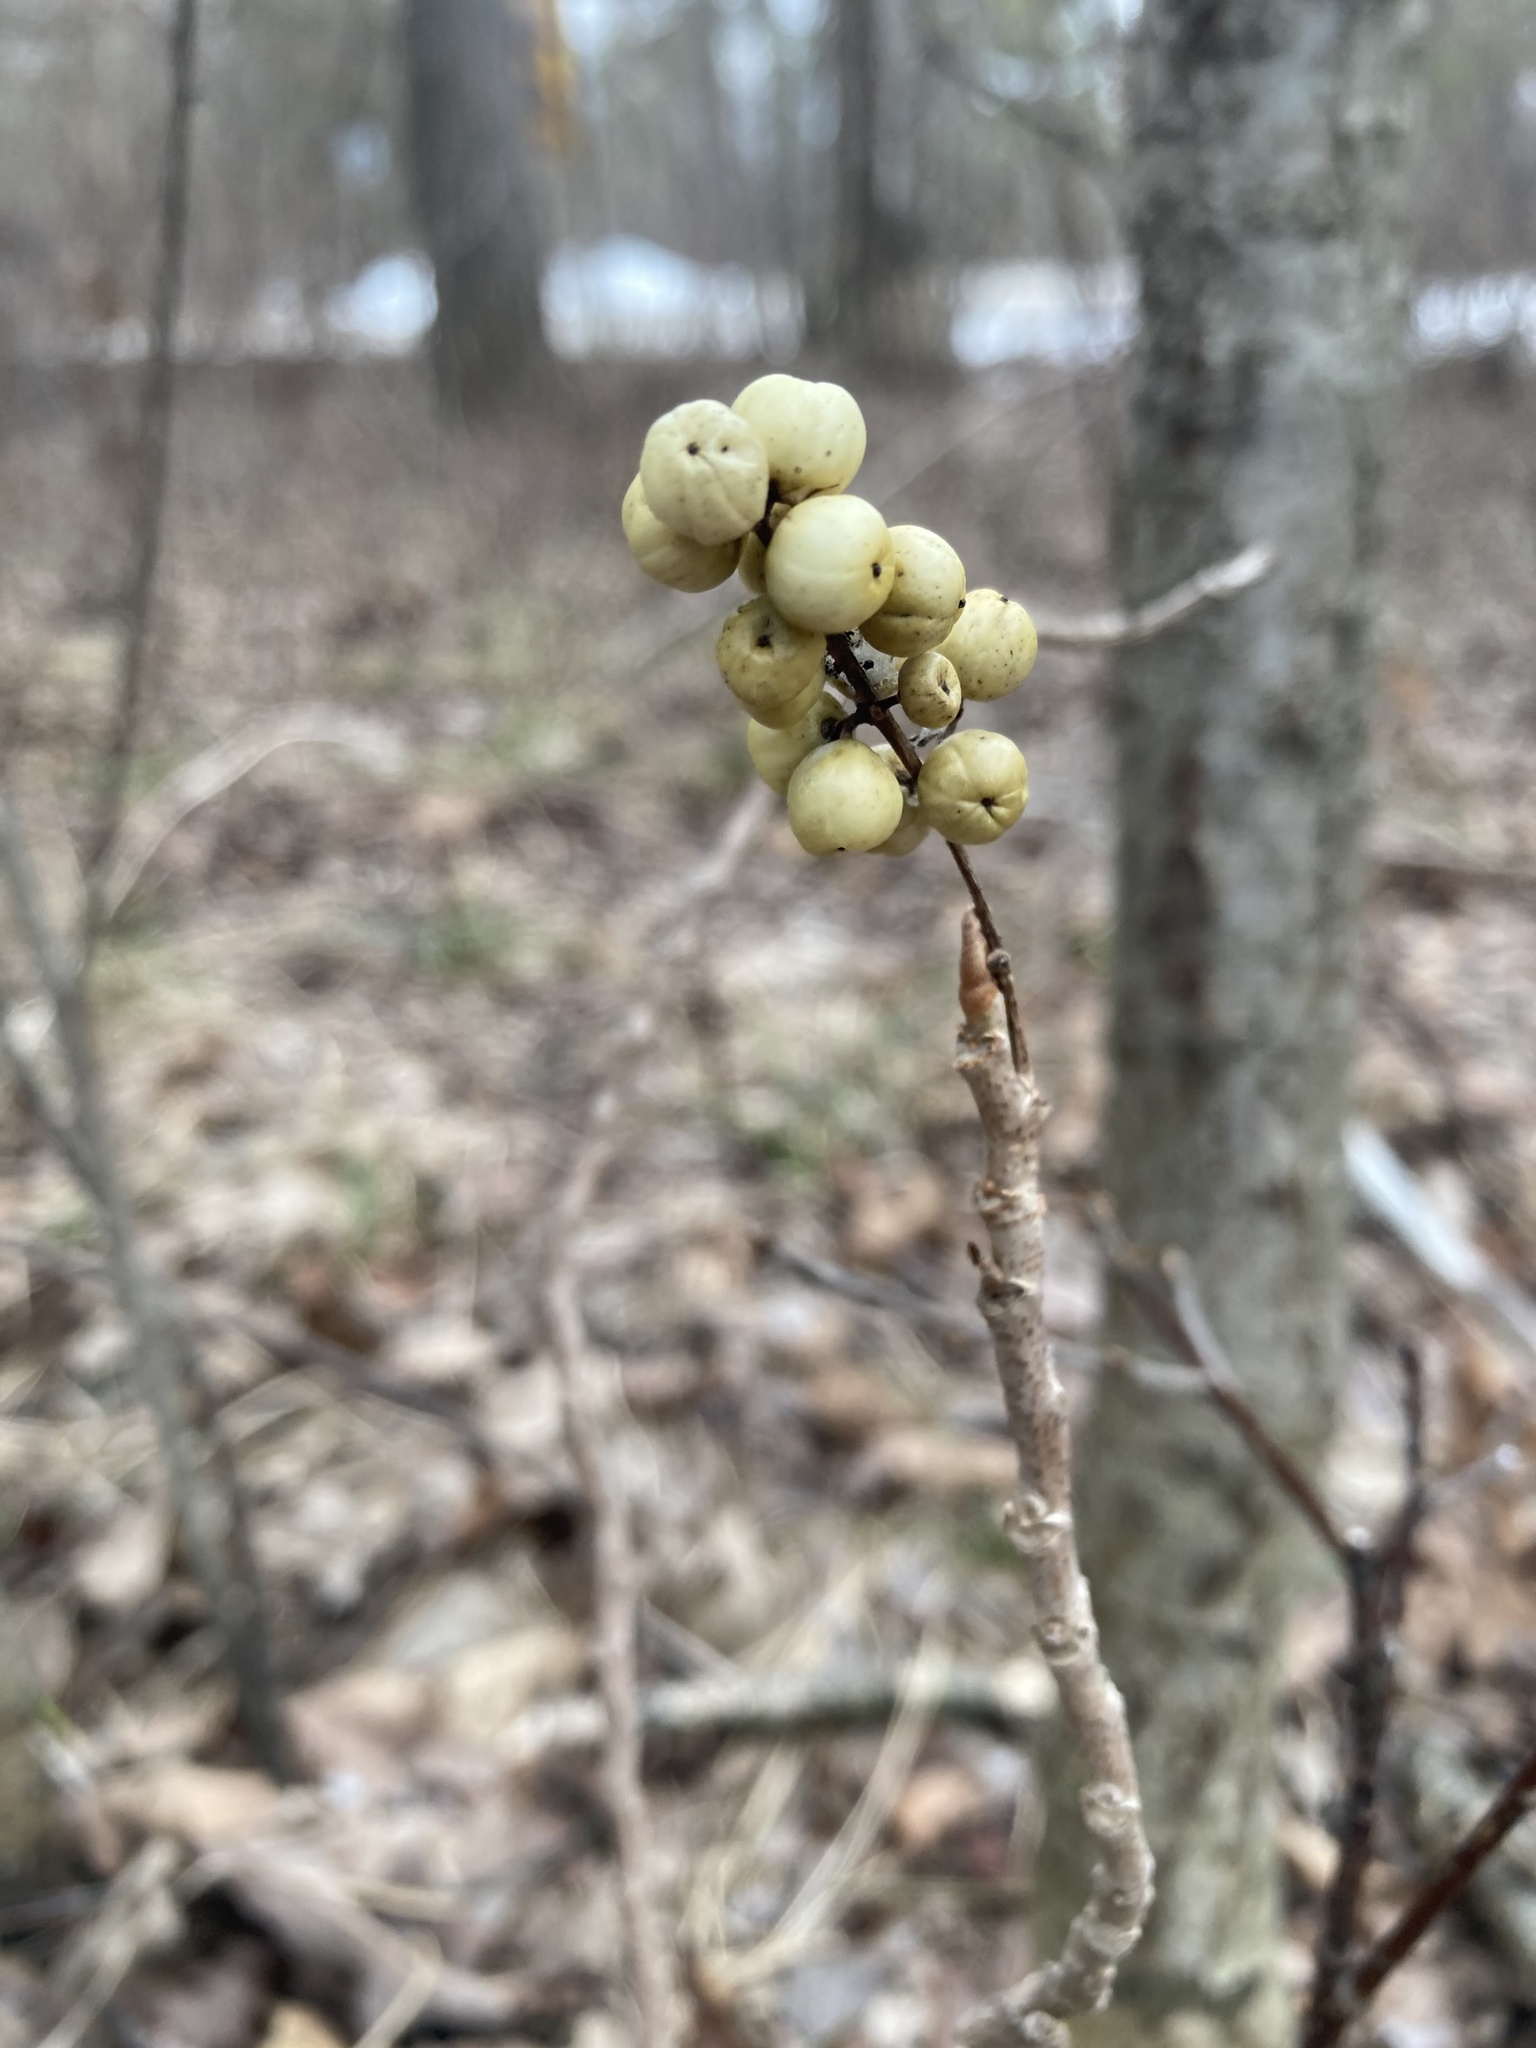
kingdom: Plantae
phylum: Tracheophyta
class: Magnoliopsida
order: Sapindales
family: Anacardiaceae
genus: Toxicodendron
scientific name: Toxicodendron rydbergii
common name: Rydberg's poison-ivy
